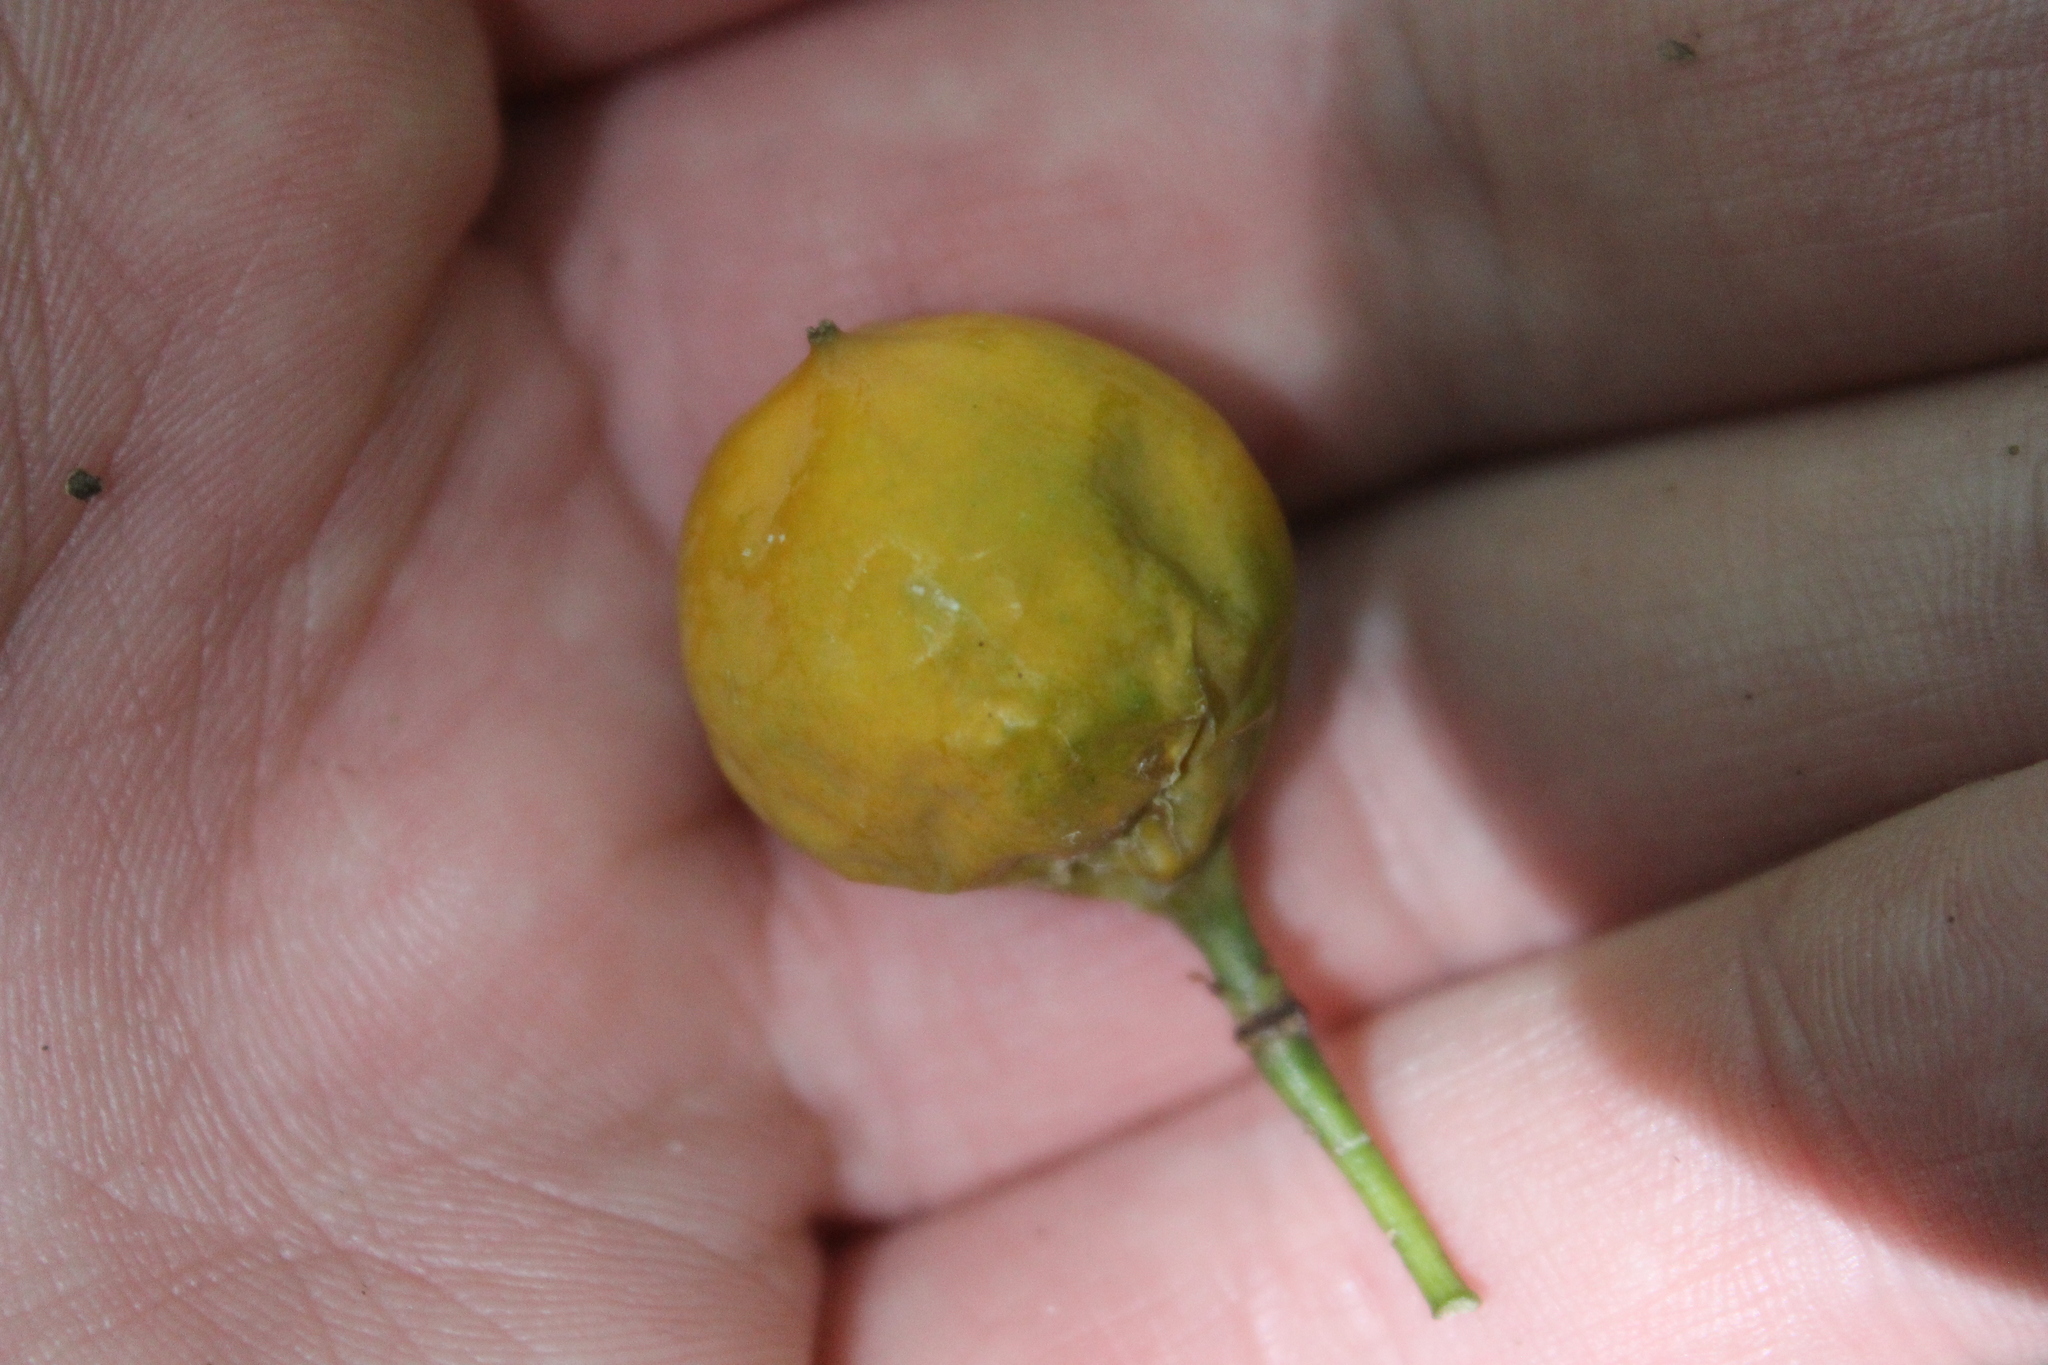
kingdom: Plantae
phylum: Tracheophyta
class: Magnoliopsida
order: Malpighiales
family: Passifloraceae
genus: Passiflora
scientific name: Passiflora tetrandra
